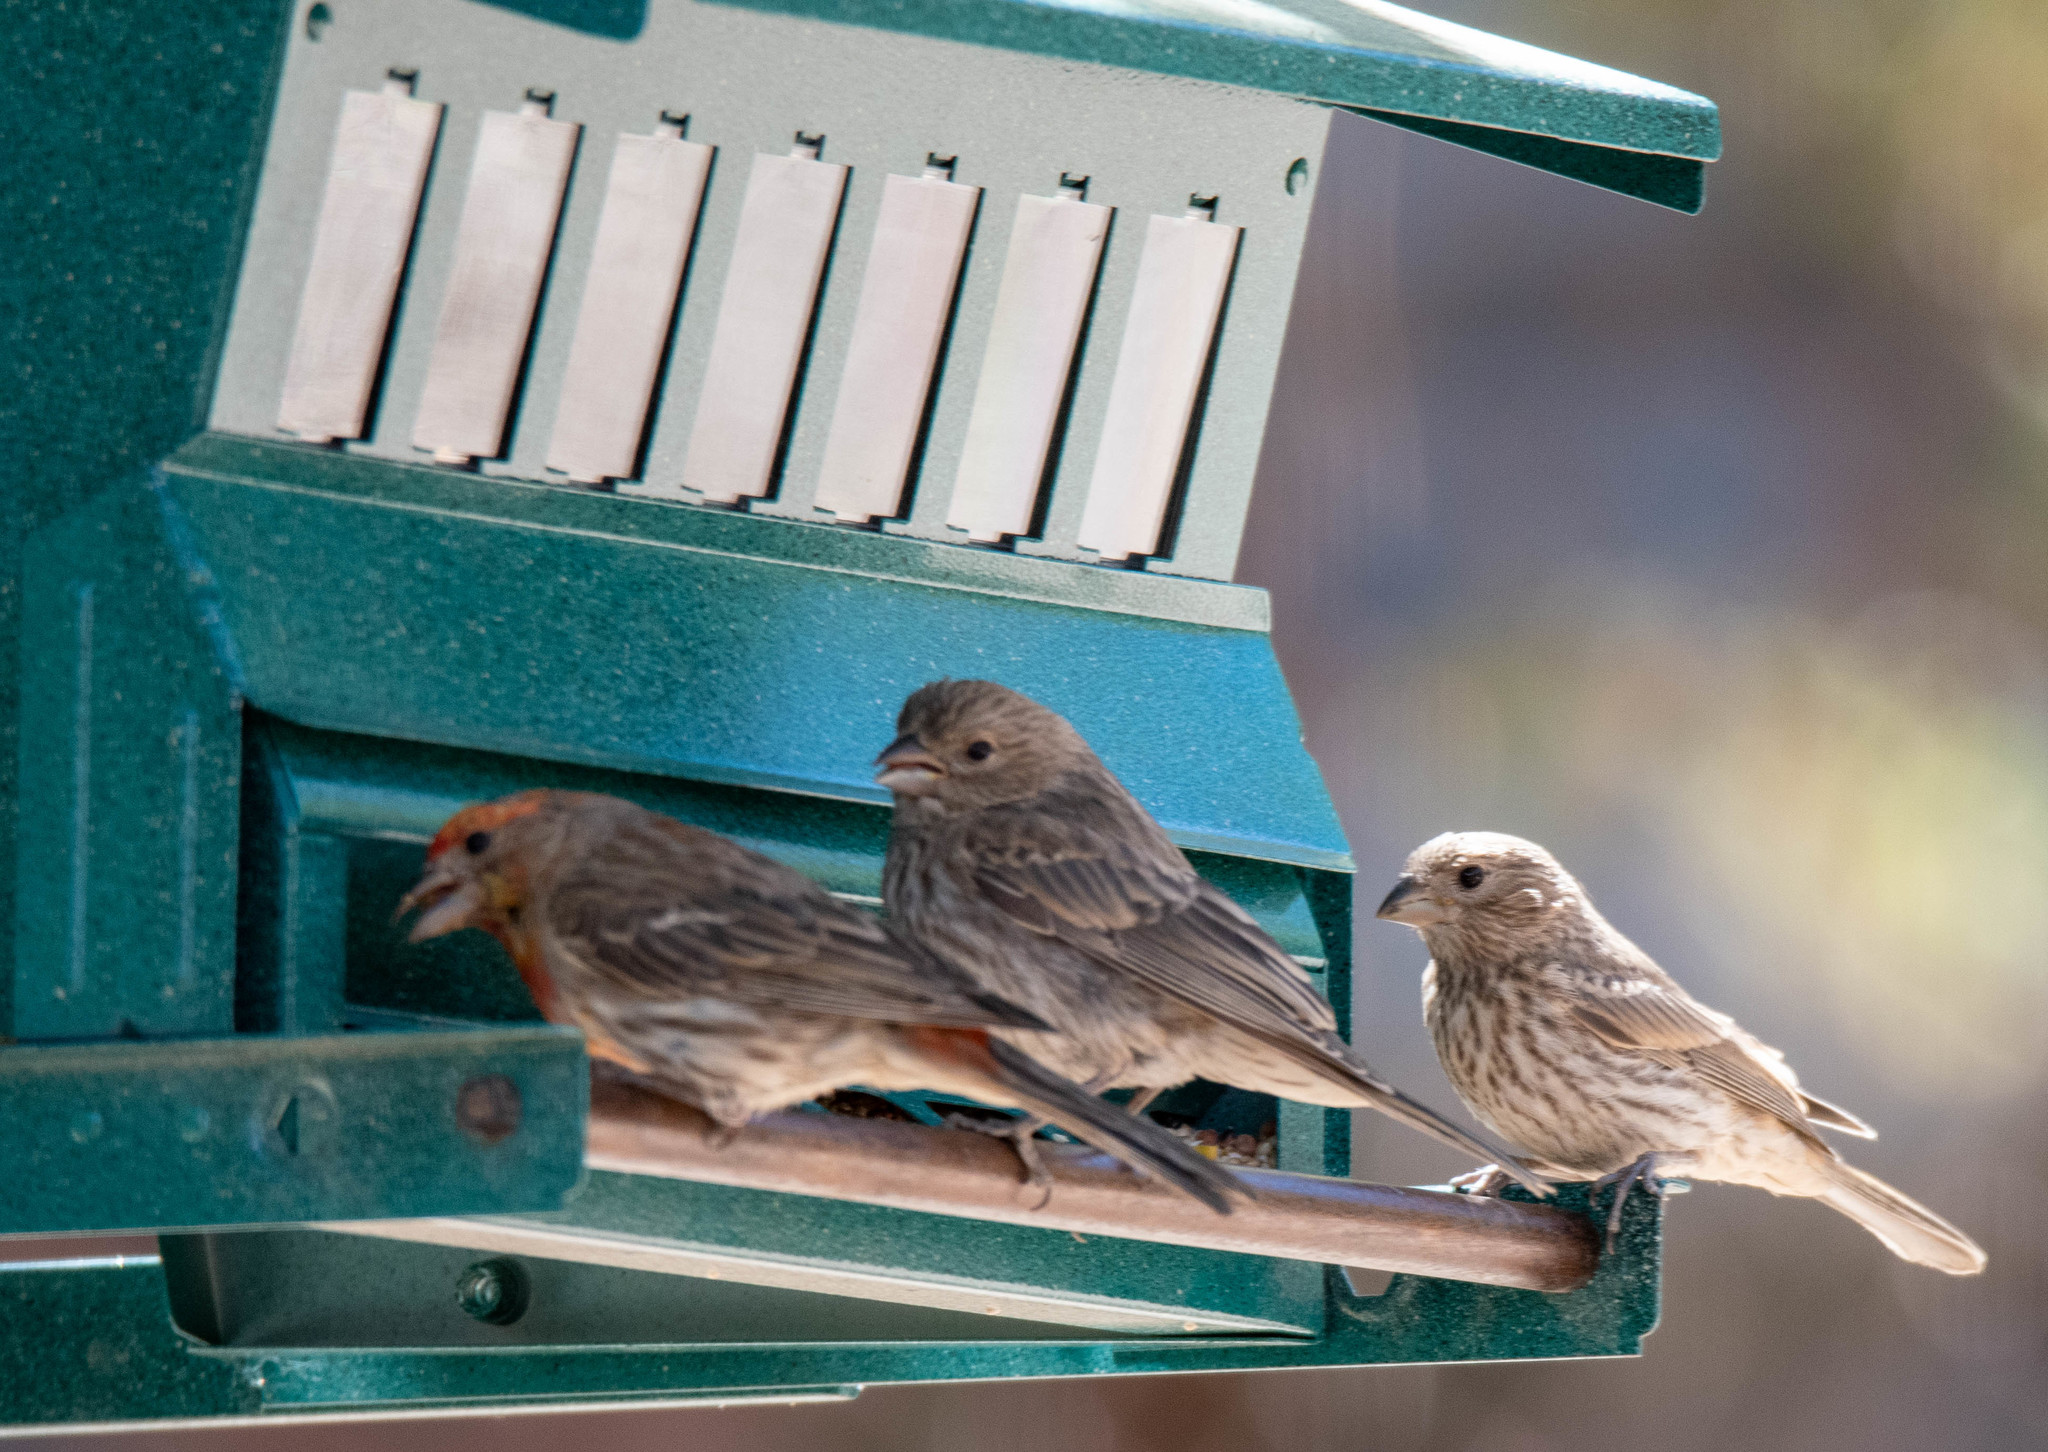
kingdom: Animalia
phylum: Chordata
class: Aves
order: Passeriformes
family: Fringillidae
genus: Haemorhous
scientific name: Haemorhous mexicanus
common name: House finch
